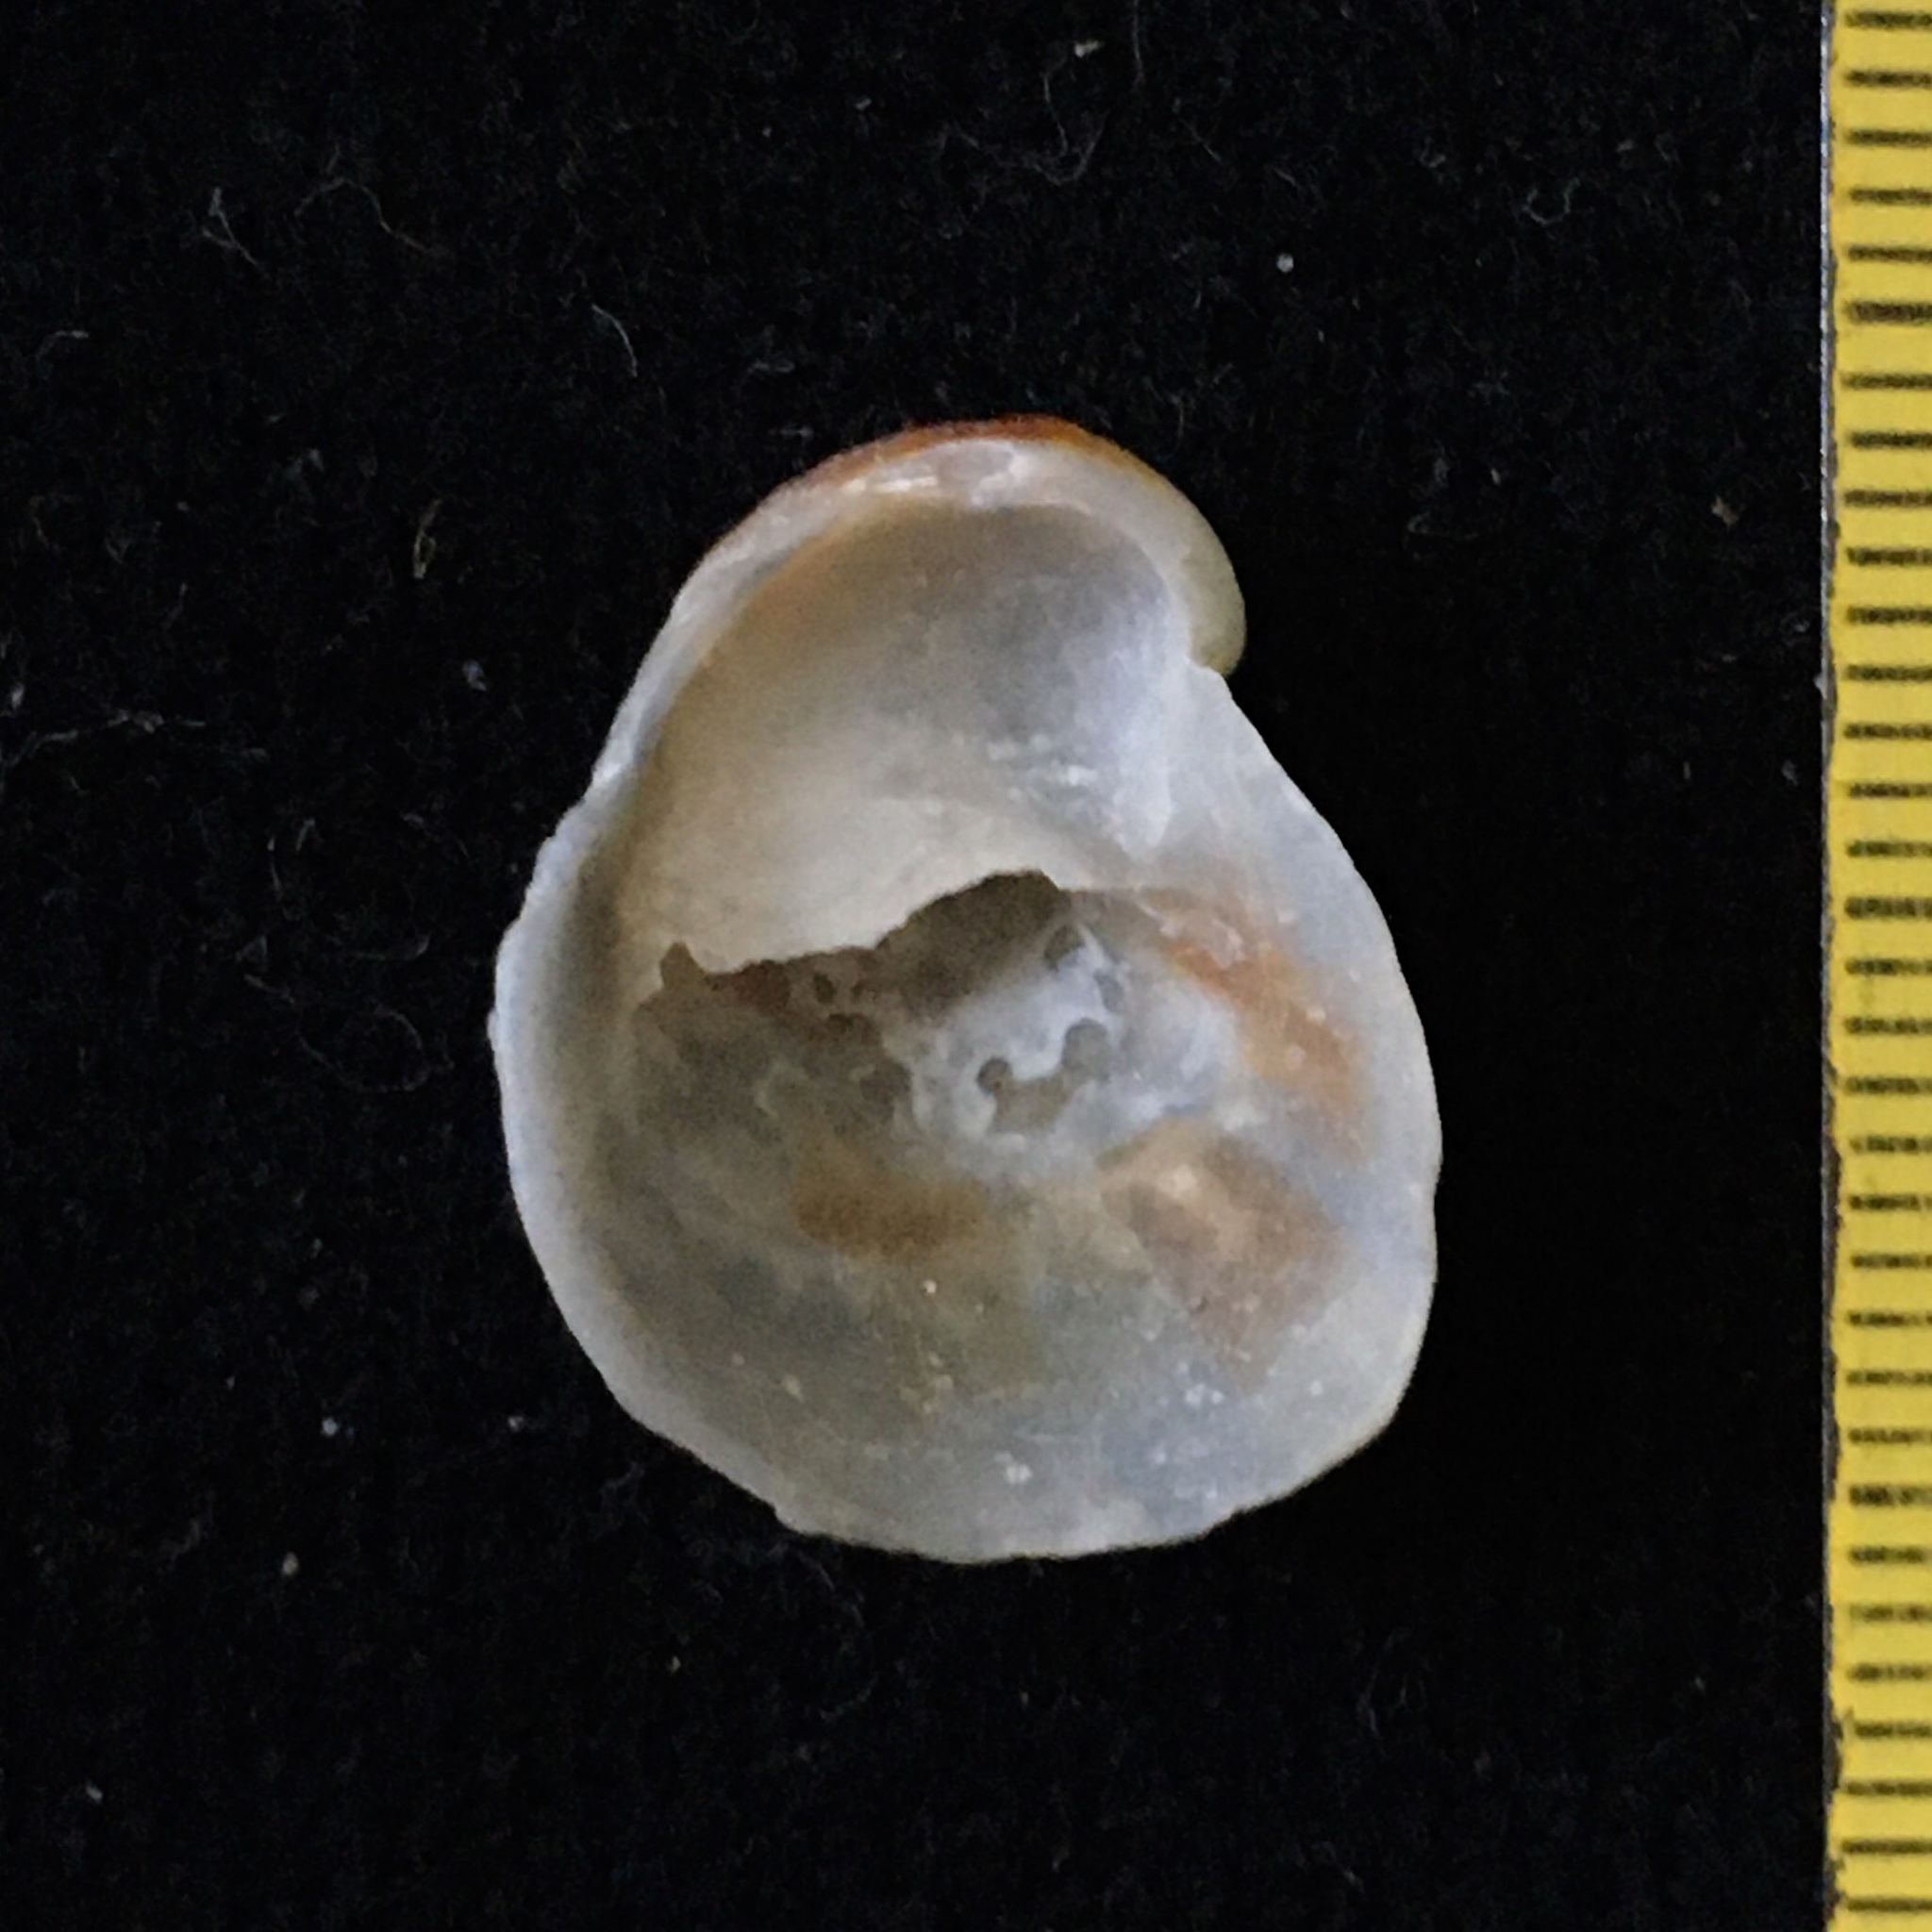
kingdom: Animalia
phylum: Mollusca
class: Gastropoda
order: Littorinimorpha
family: Calyptraeidae
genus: Bostrycapulus
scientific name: Bostrycapulus odites
